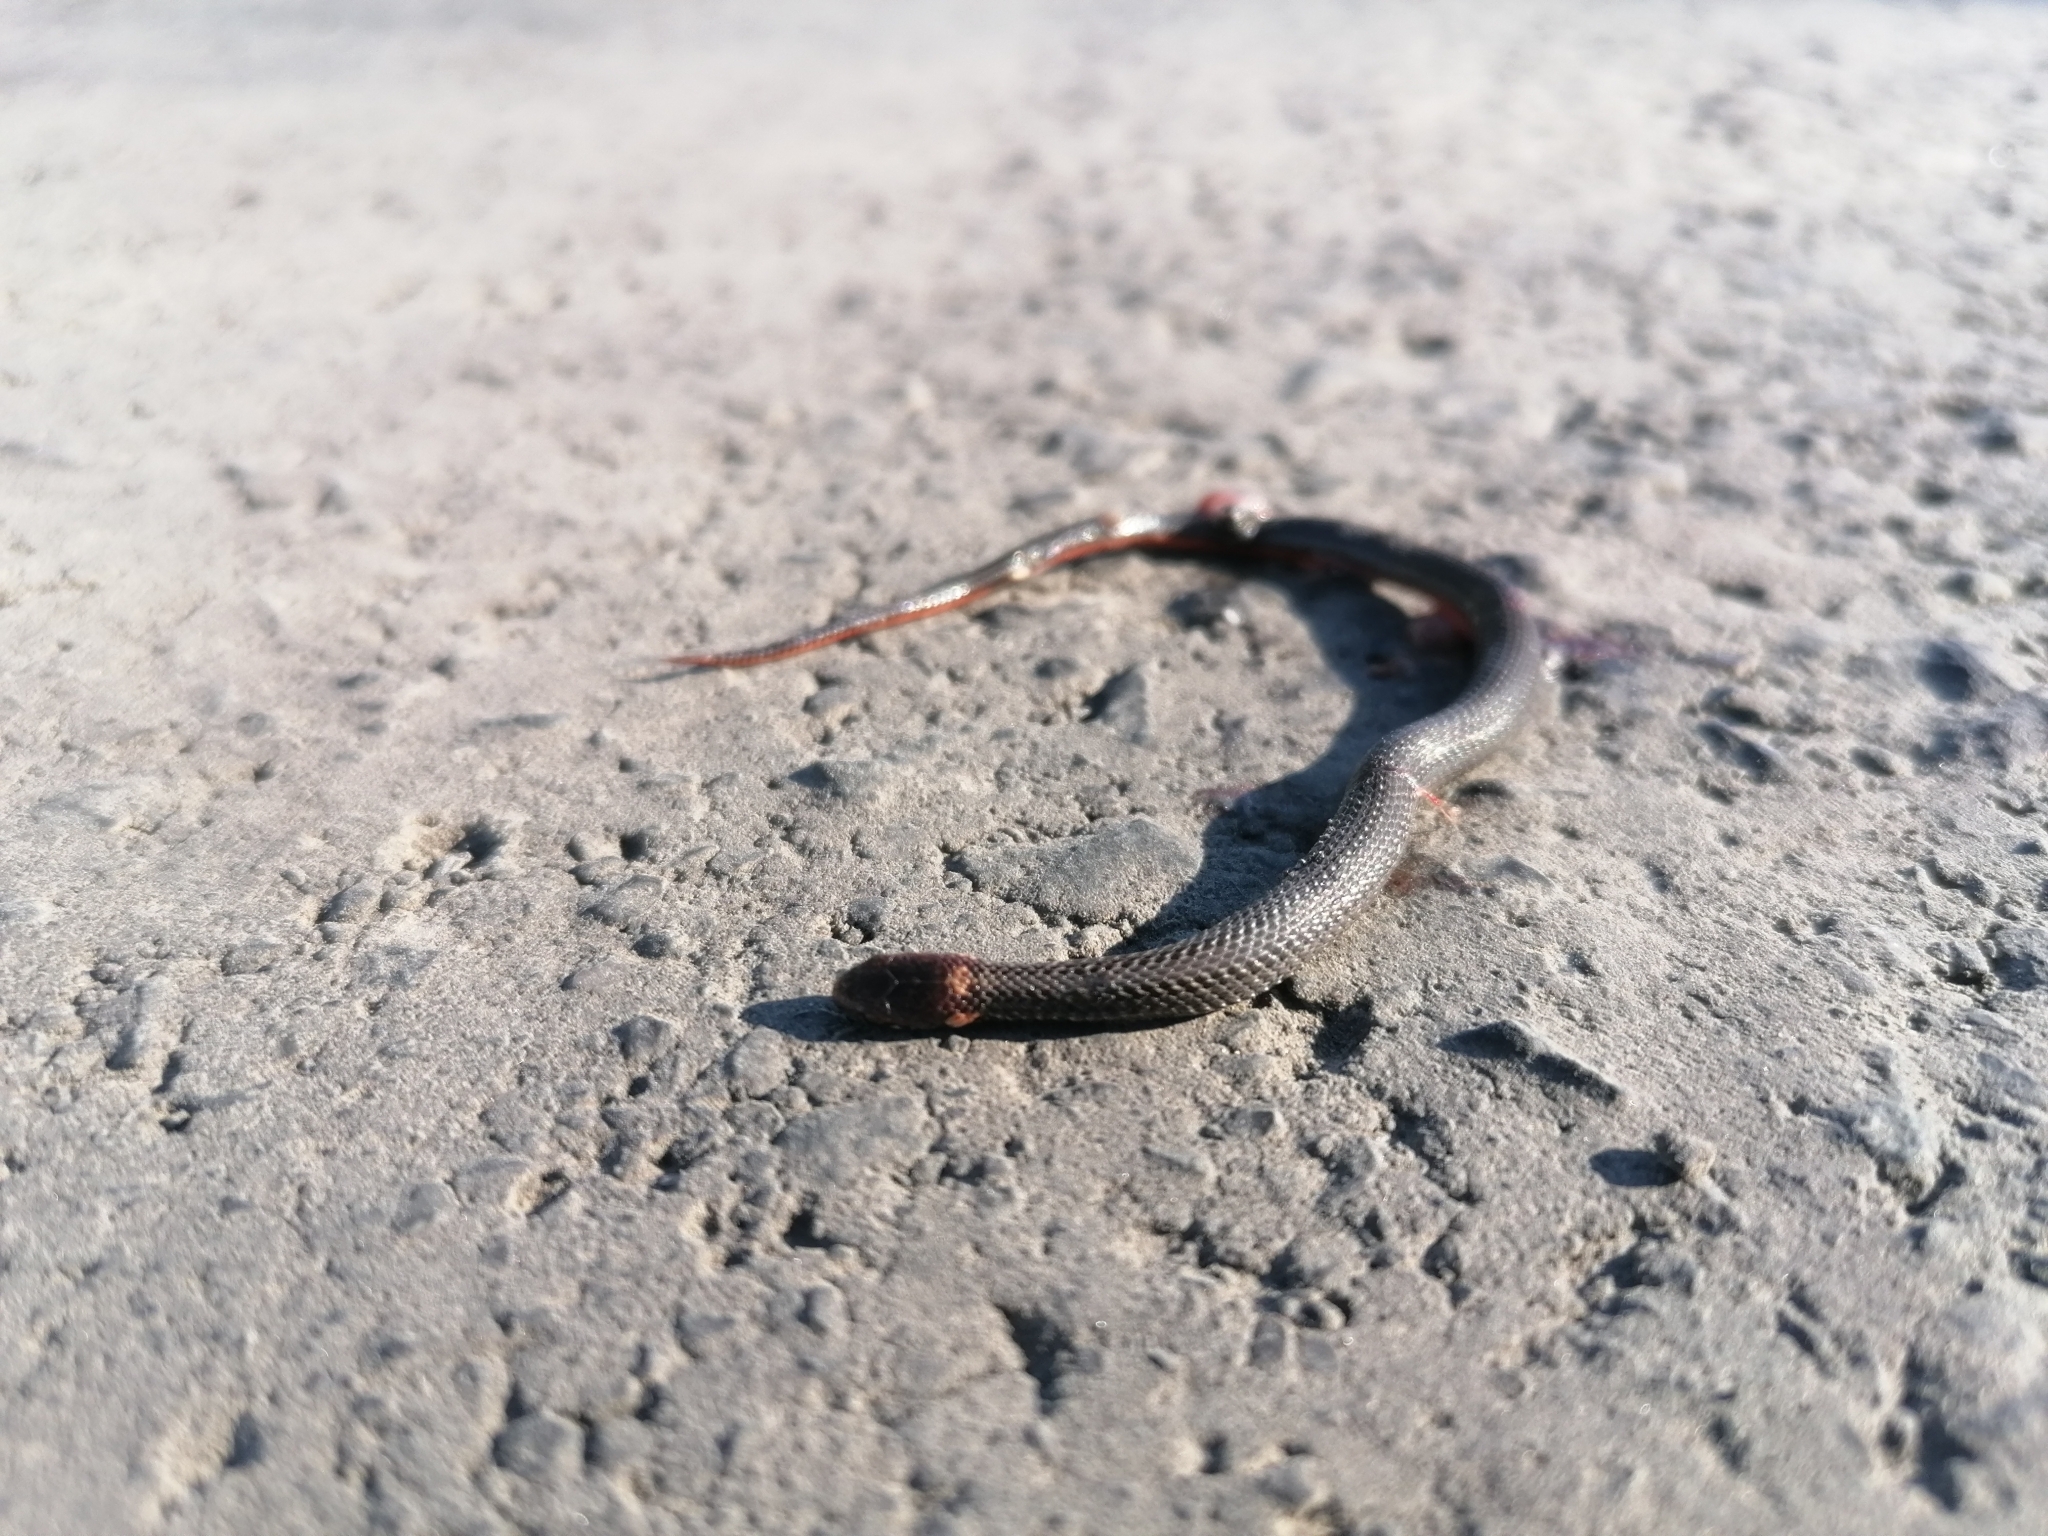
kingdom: Animalia
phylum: Chordata
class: Squamata
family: Colubridae
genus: Storeria
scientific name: Storeria occipitomaculata
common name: Redbelly snake
